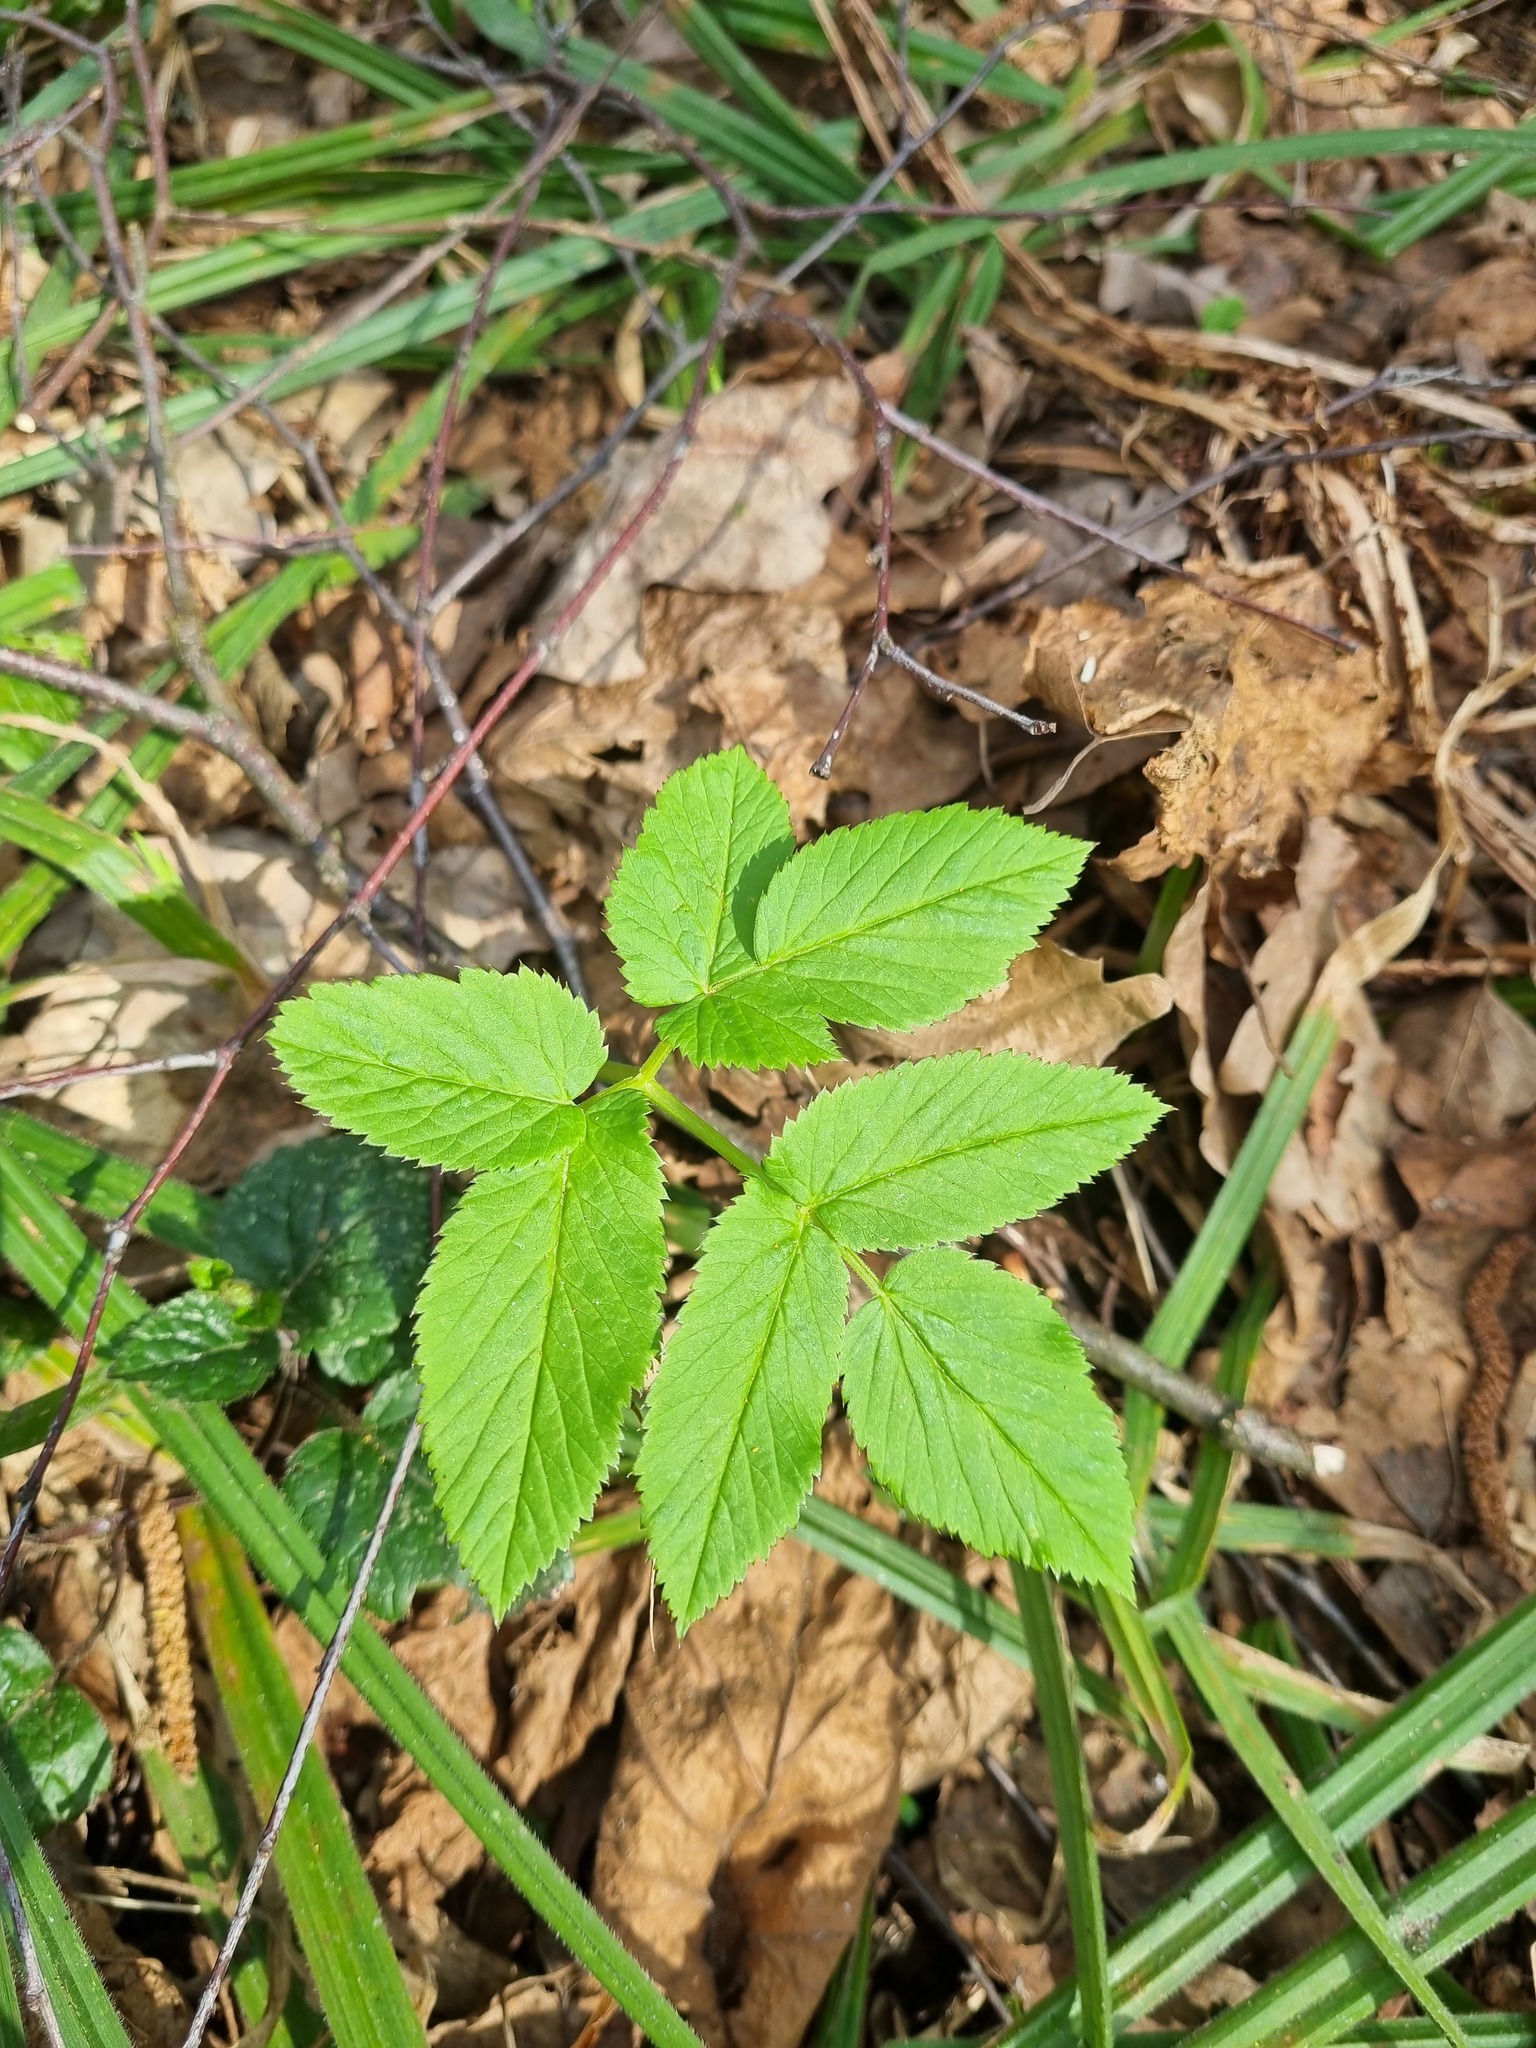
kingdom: Plantae
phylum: Tracheophyta
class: Magnoliopsida
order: Apiales
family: Apiaceae
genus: Aegopodium
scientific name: Aegopodium podagraria
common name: Ground-elder
